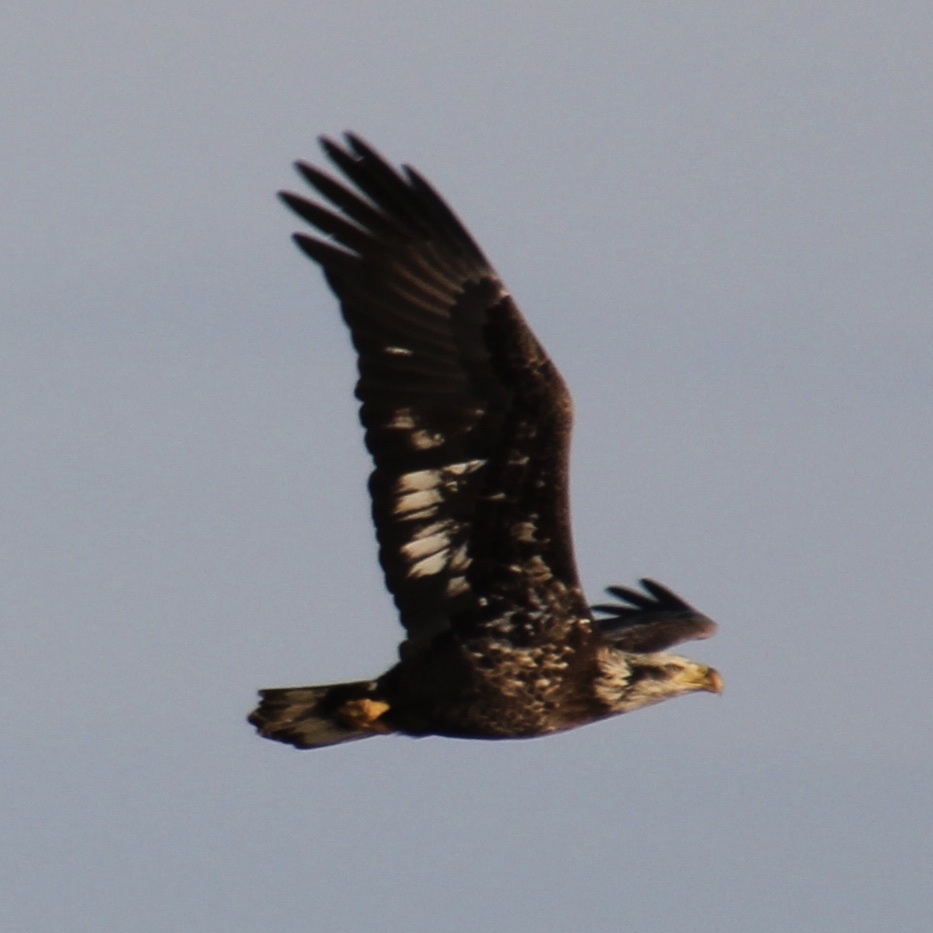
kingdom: Animalia
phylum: Chordata
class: Aves
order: Accipitriformes
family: Accipitridae
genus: Haliaeetus
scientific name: Haliaeetus leucocephalus
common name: Bald eagle
